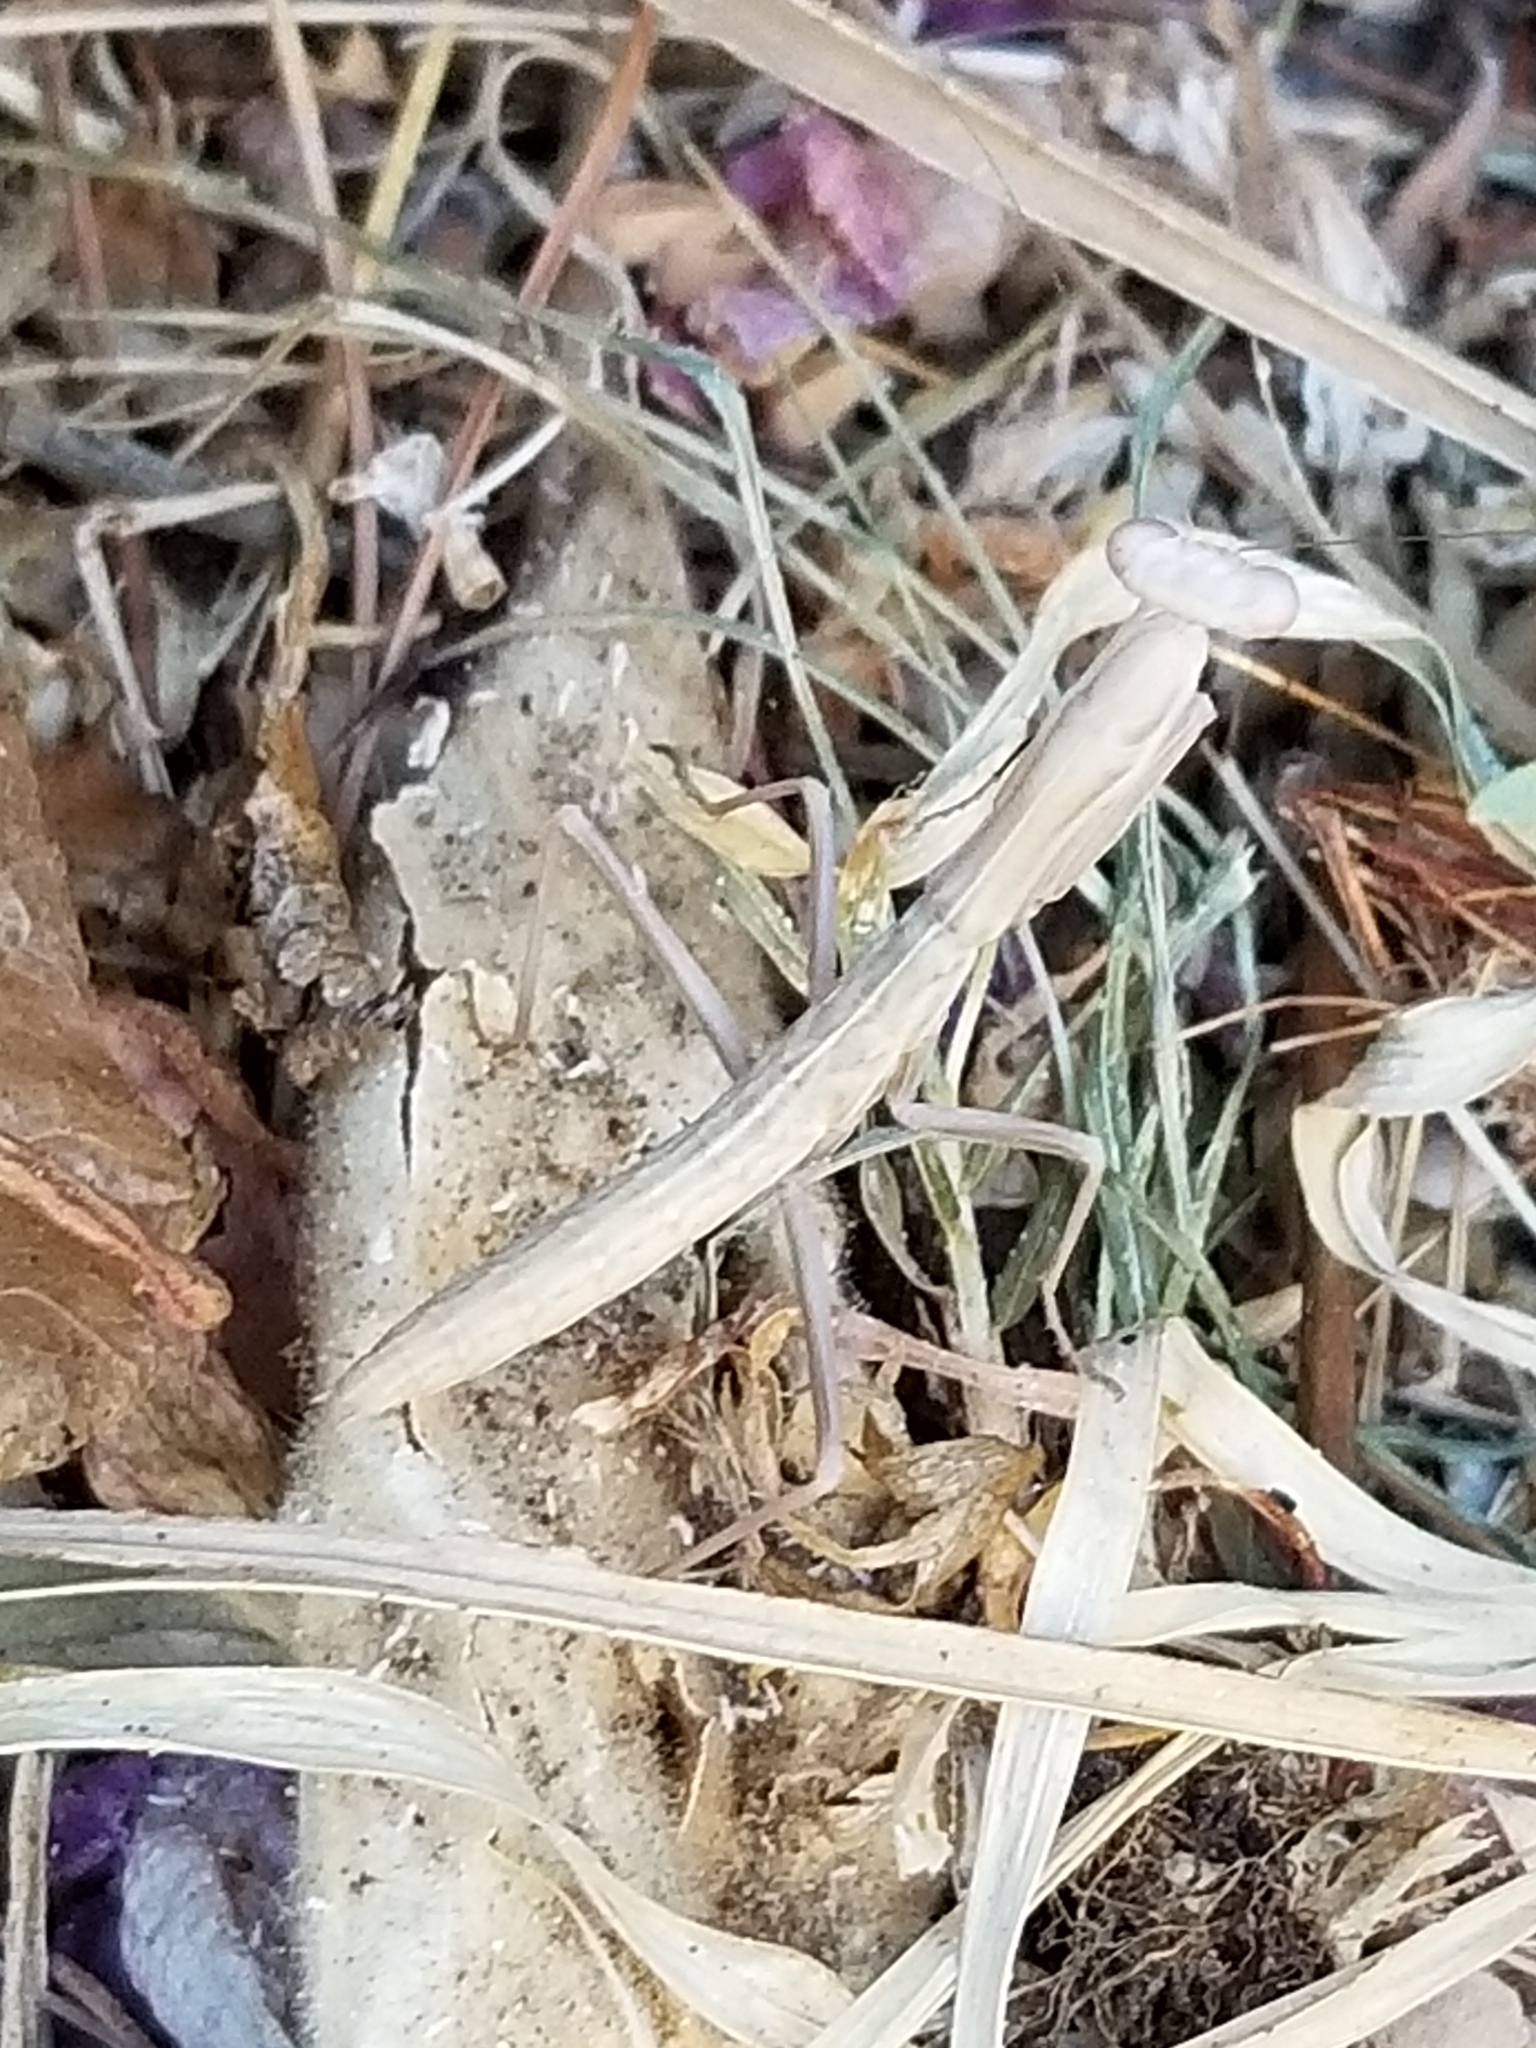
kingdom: Animalia
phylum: Arthropoda
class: Insecta
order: Mantodea
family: Eremiaphilidae
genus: Iris
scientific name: Iris oratoria
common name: Mediterranean mantis
